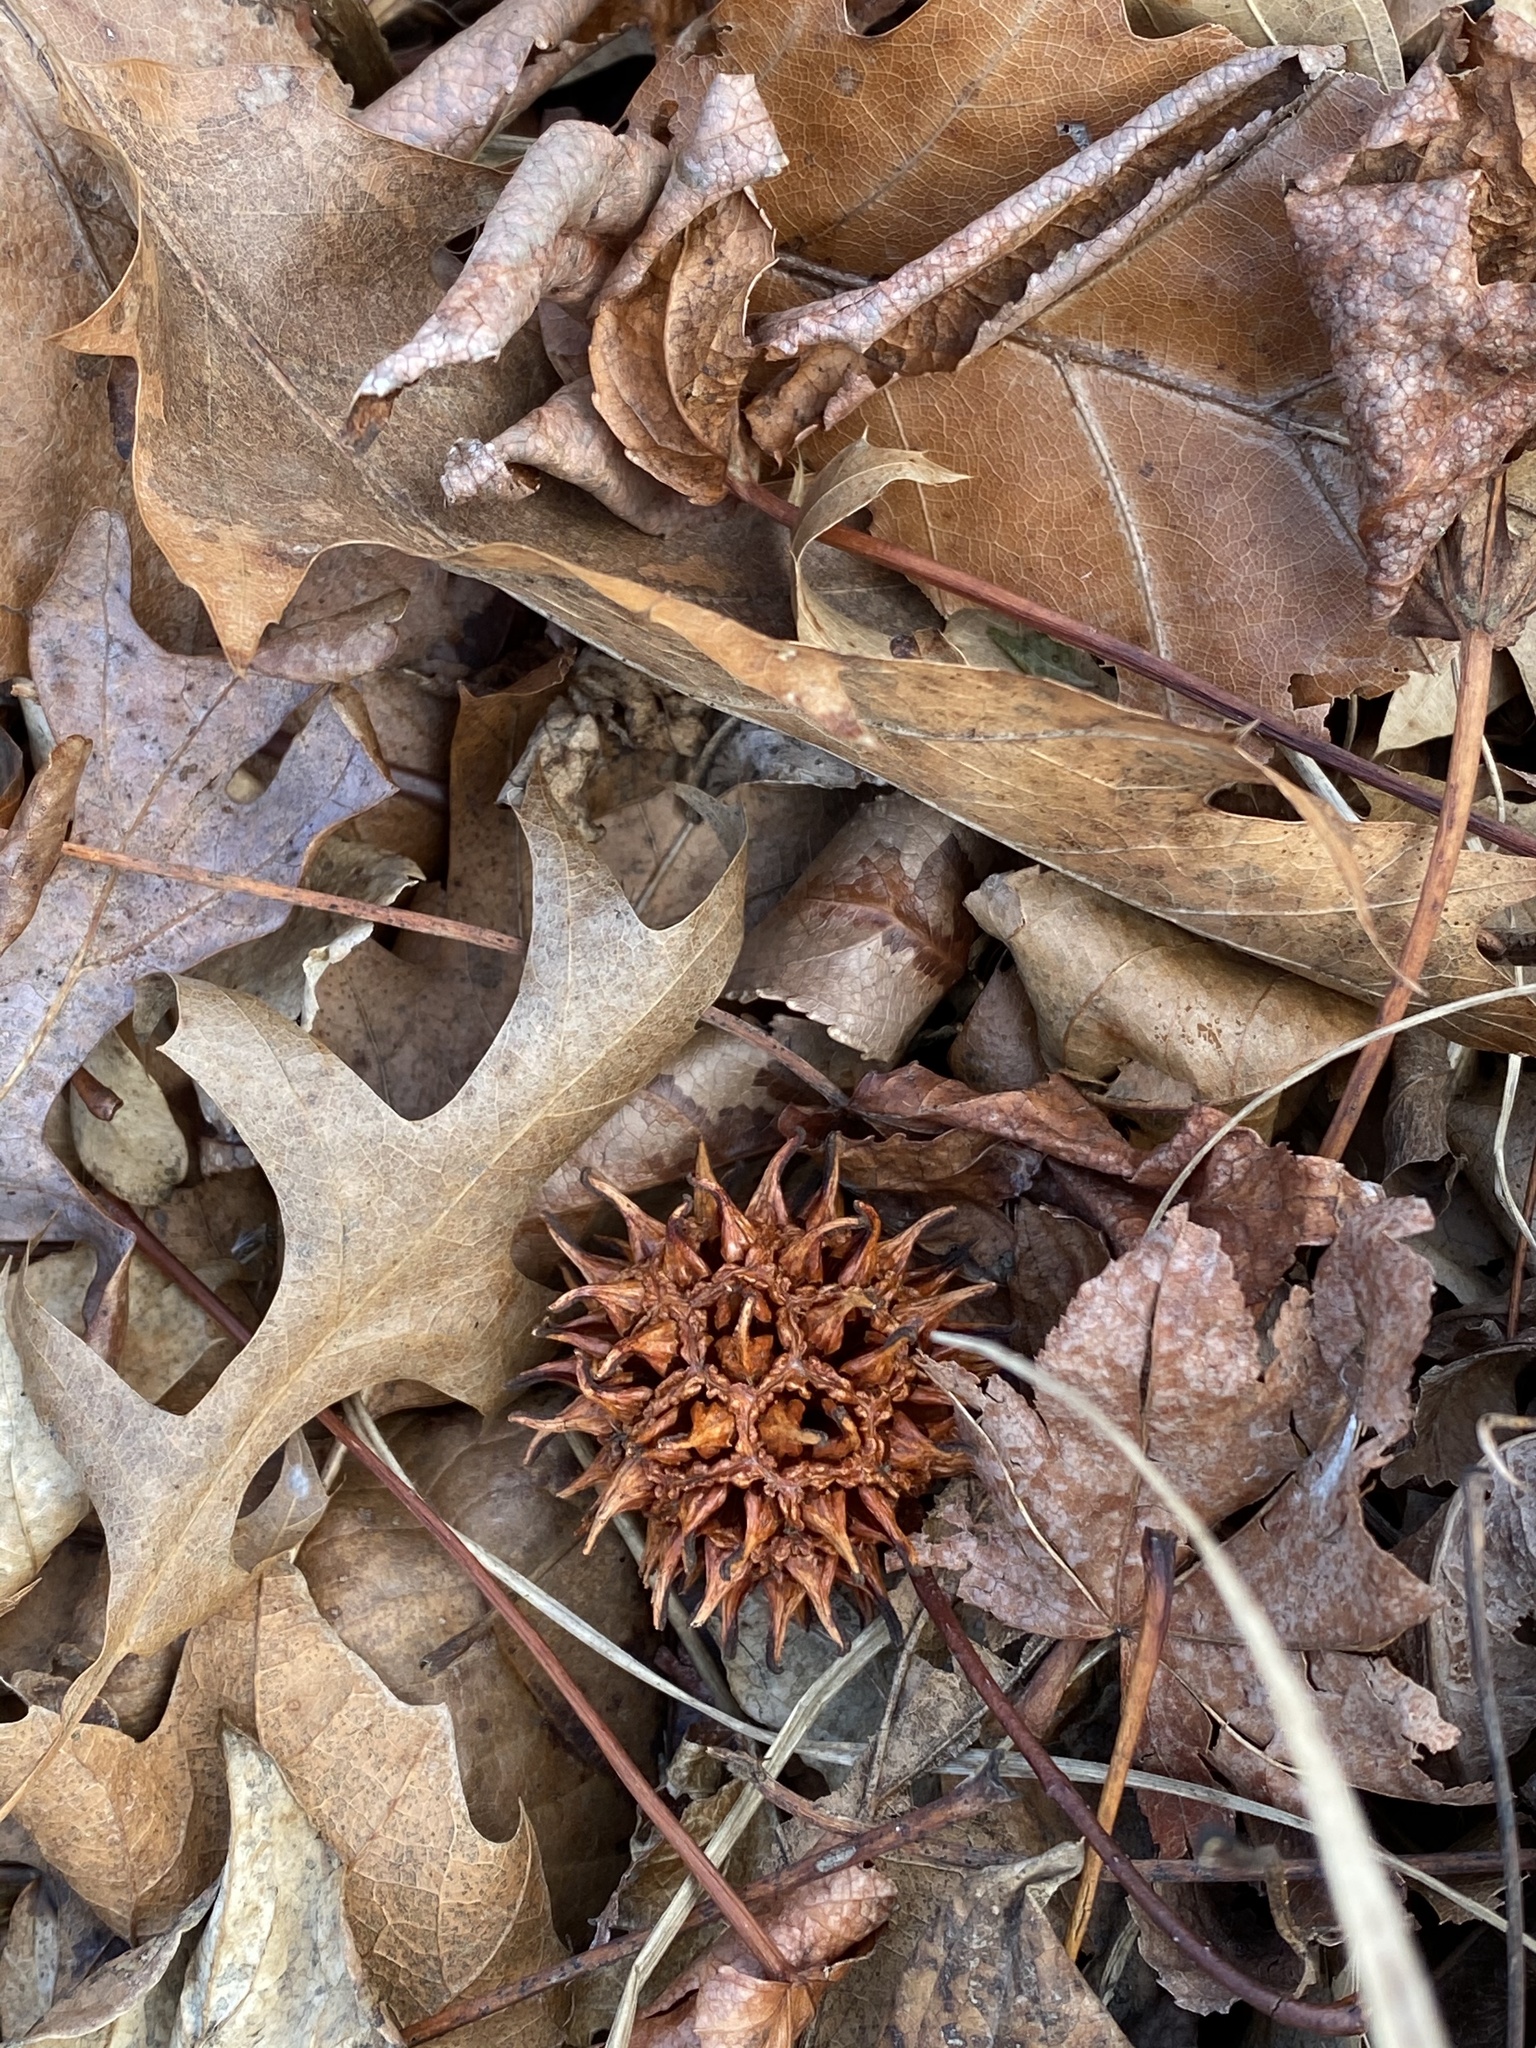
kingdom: Plantae
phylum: Tracheophyta
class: Magnoliopsida
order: Saxifragales
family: Altingiaceae
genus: Liquidambar
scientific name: Liquidambar styraciflua
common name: Sweet gum
